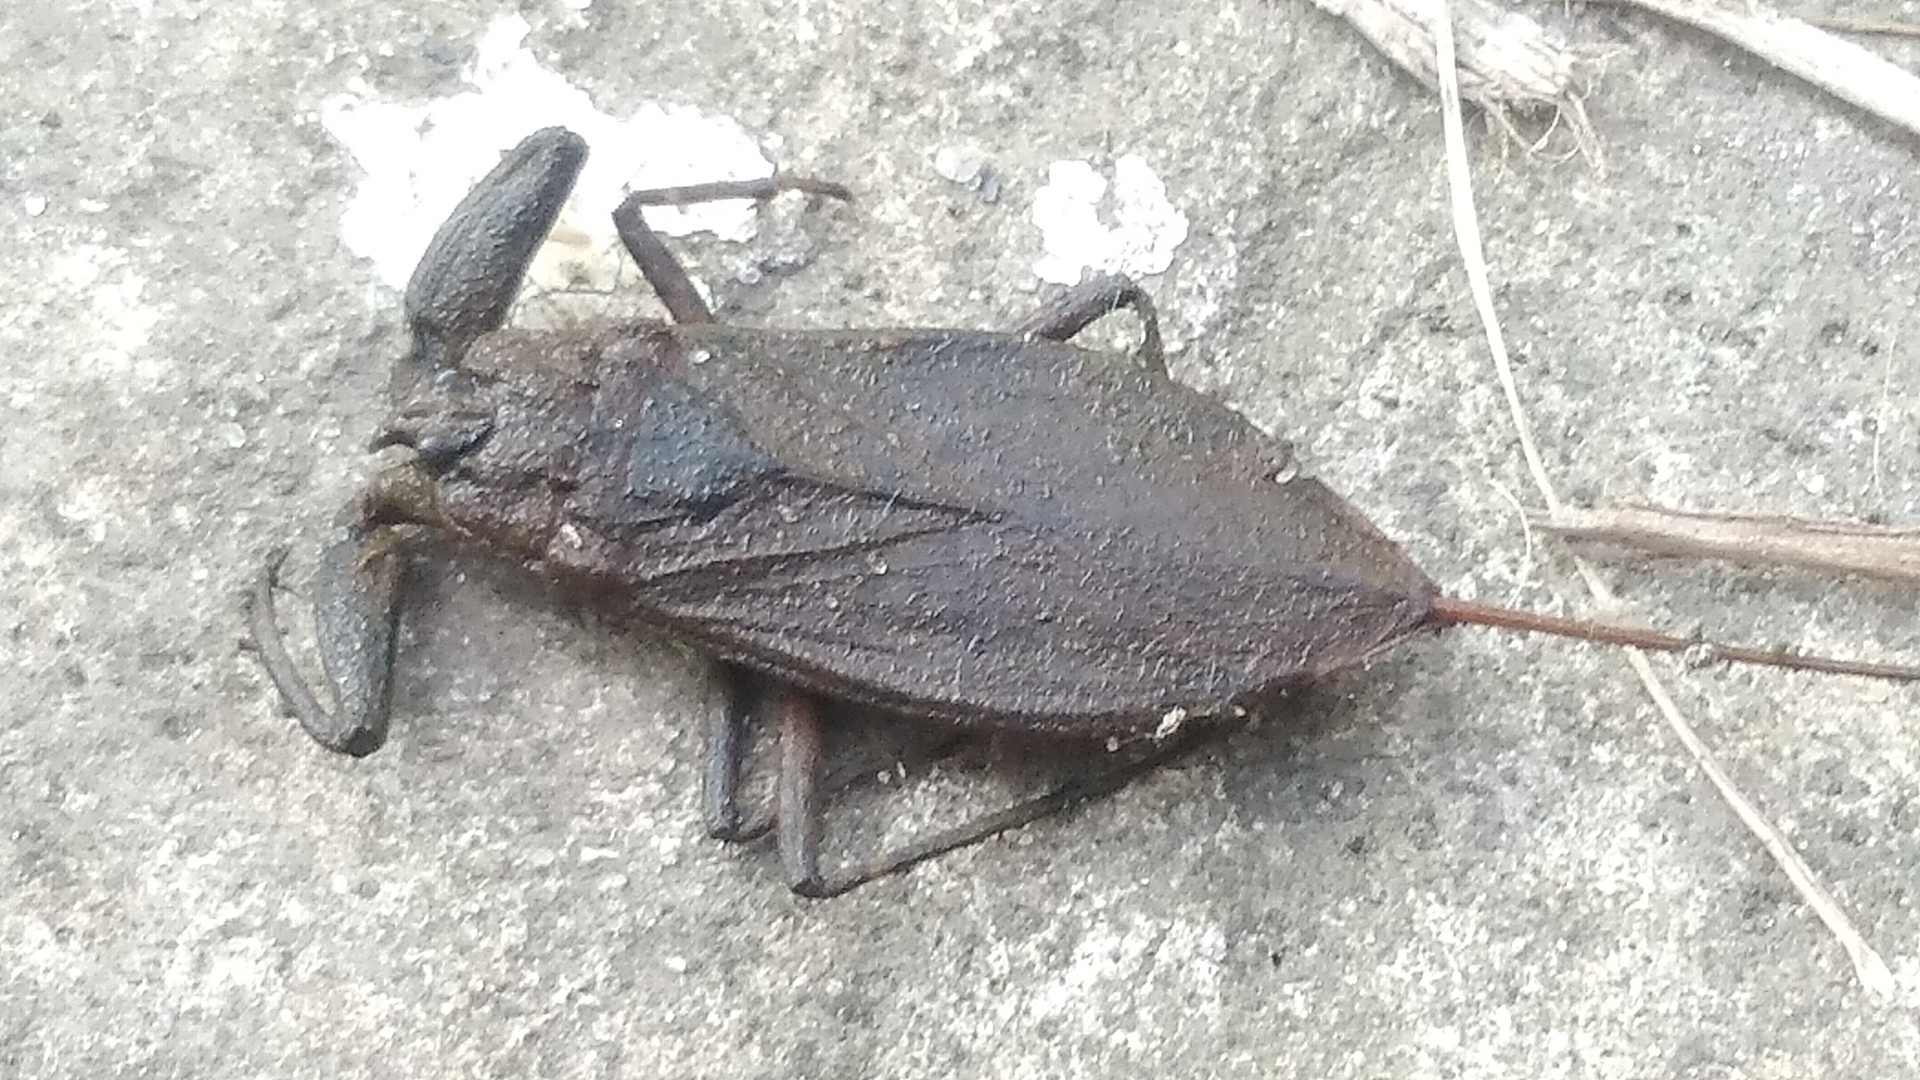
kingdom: Animalia
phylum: Arthropoda
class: Insecta
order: Hemiptera
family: Nepidae
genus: Nepa
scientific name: Nepa cinerea
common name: Water scorpion
